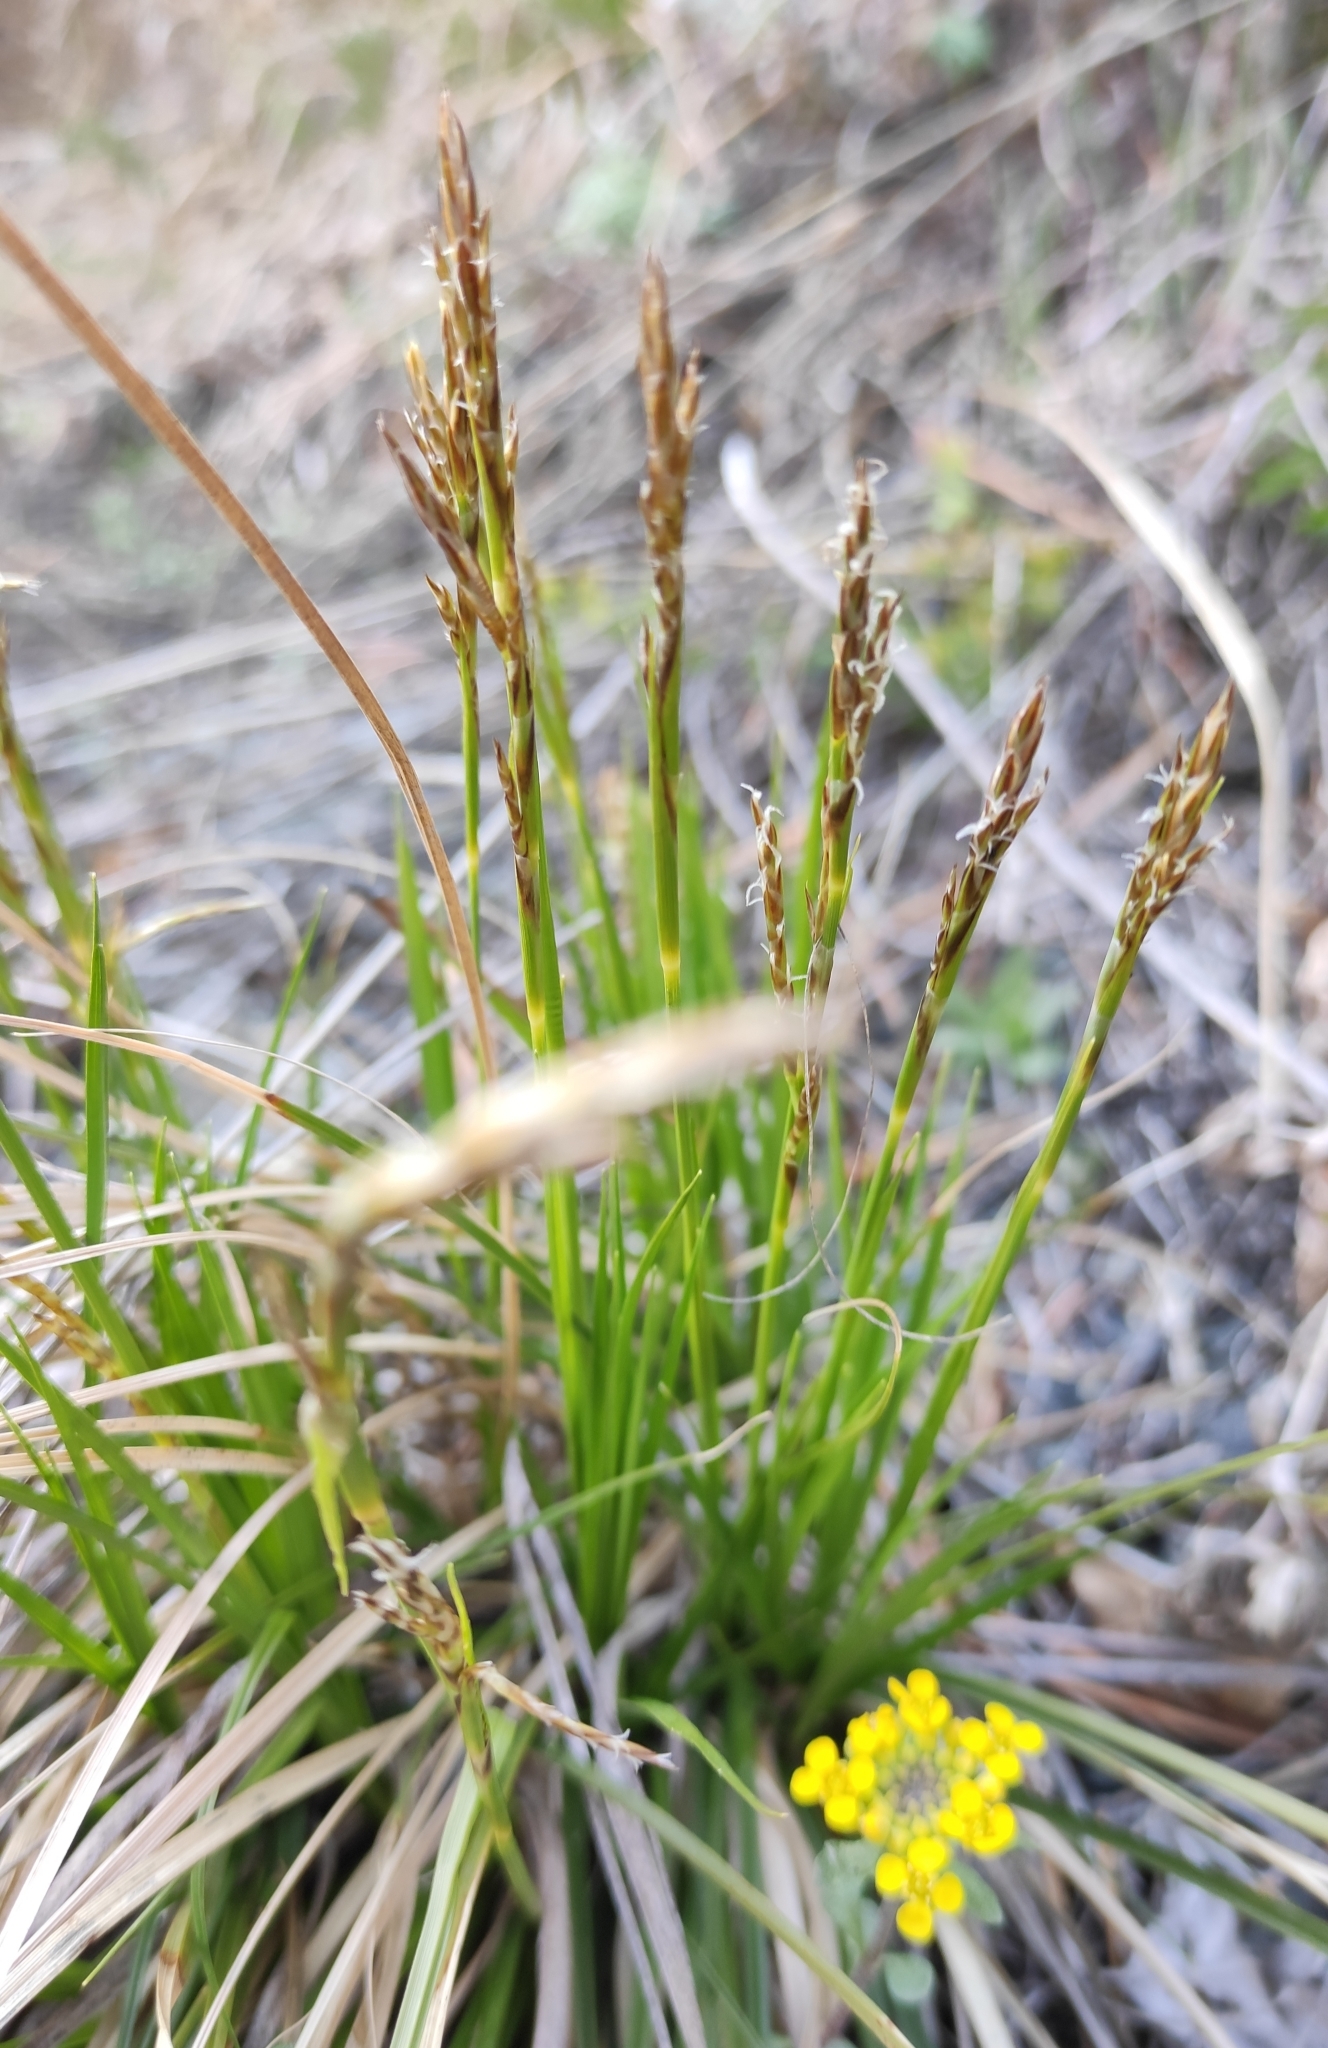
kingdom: Plantae
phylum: Tracheophyta
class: Liliopsida
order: Poales
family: Cyperaceae
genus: Carex
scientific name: Carex pediformis
